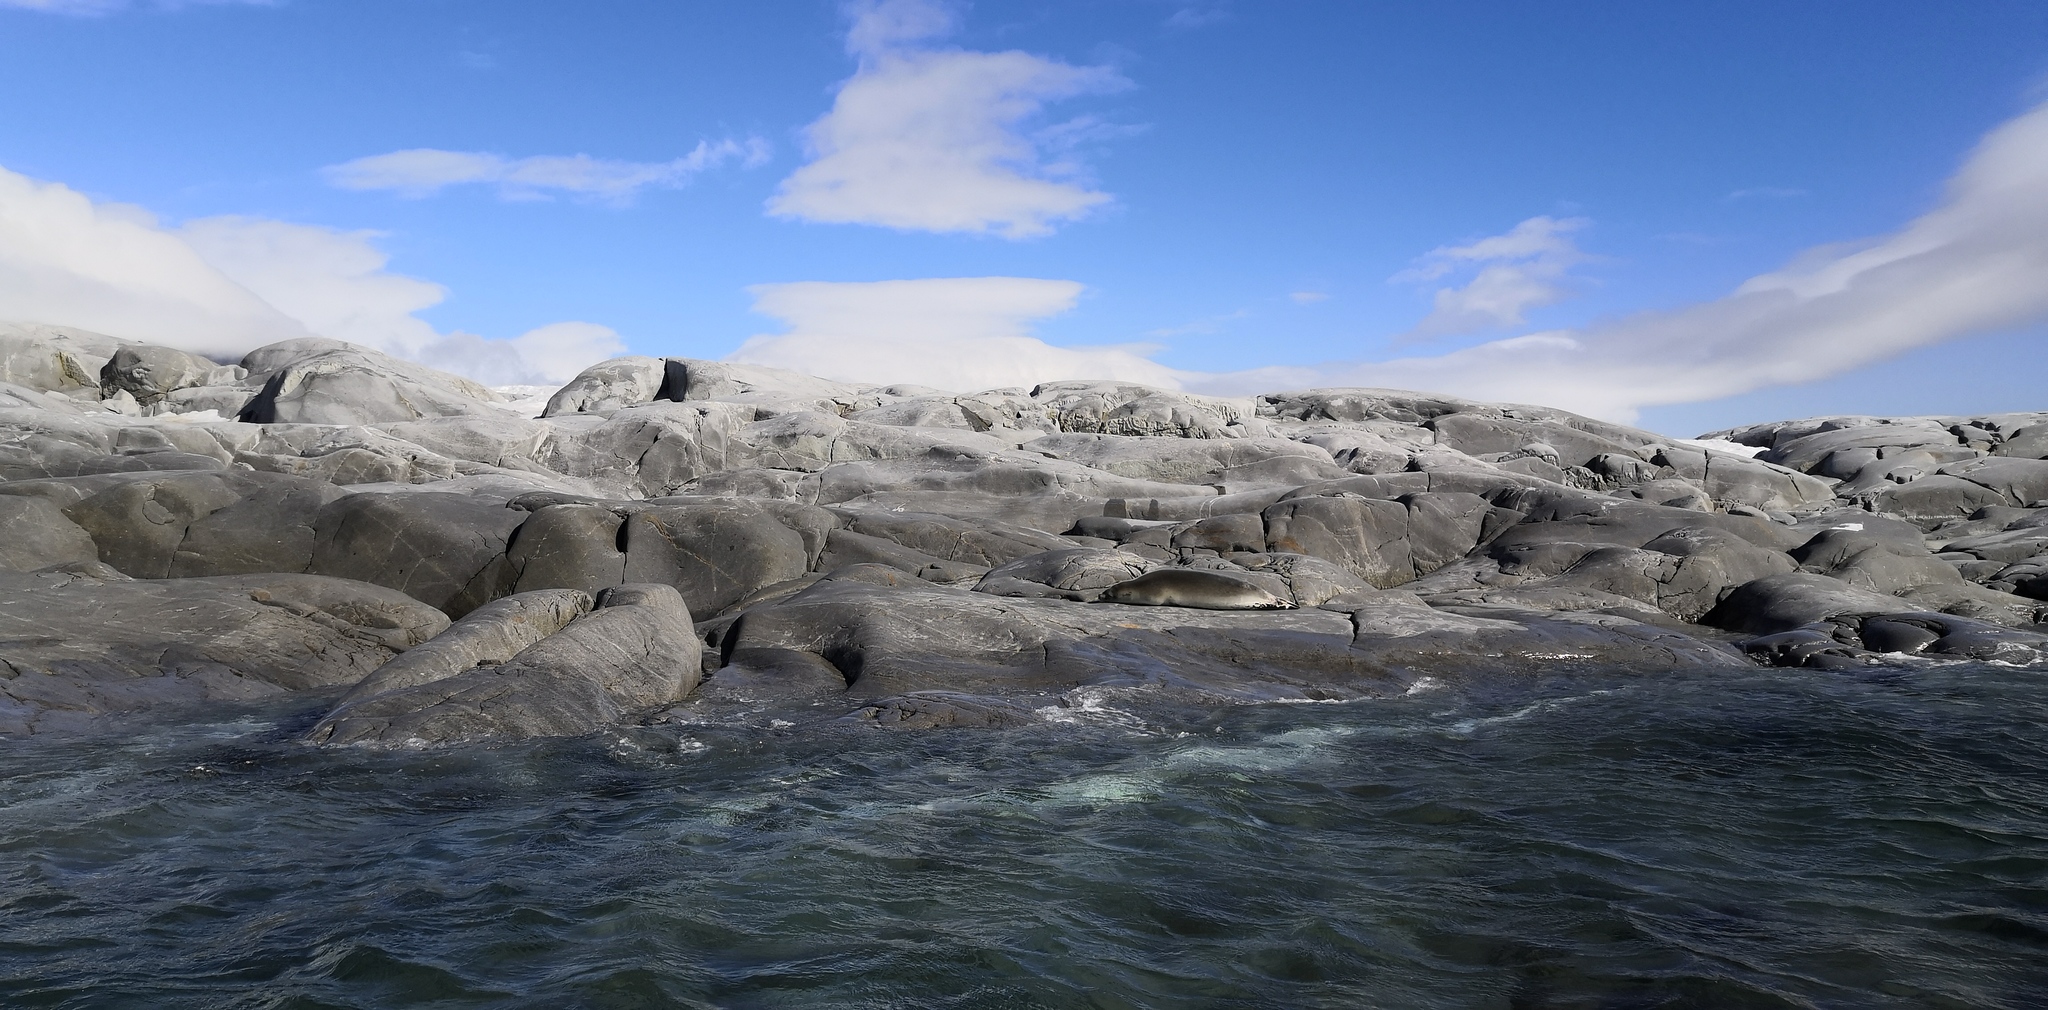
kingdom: Animalia
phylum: Chordata
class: Mammalia
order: Carnivora
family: Phocidae
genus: Lobodon
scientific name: Lobodon carcinophaga
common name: Crabeater seal
